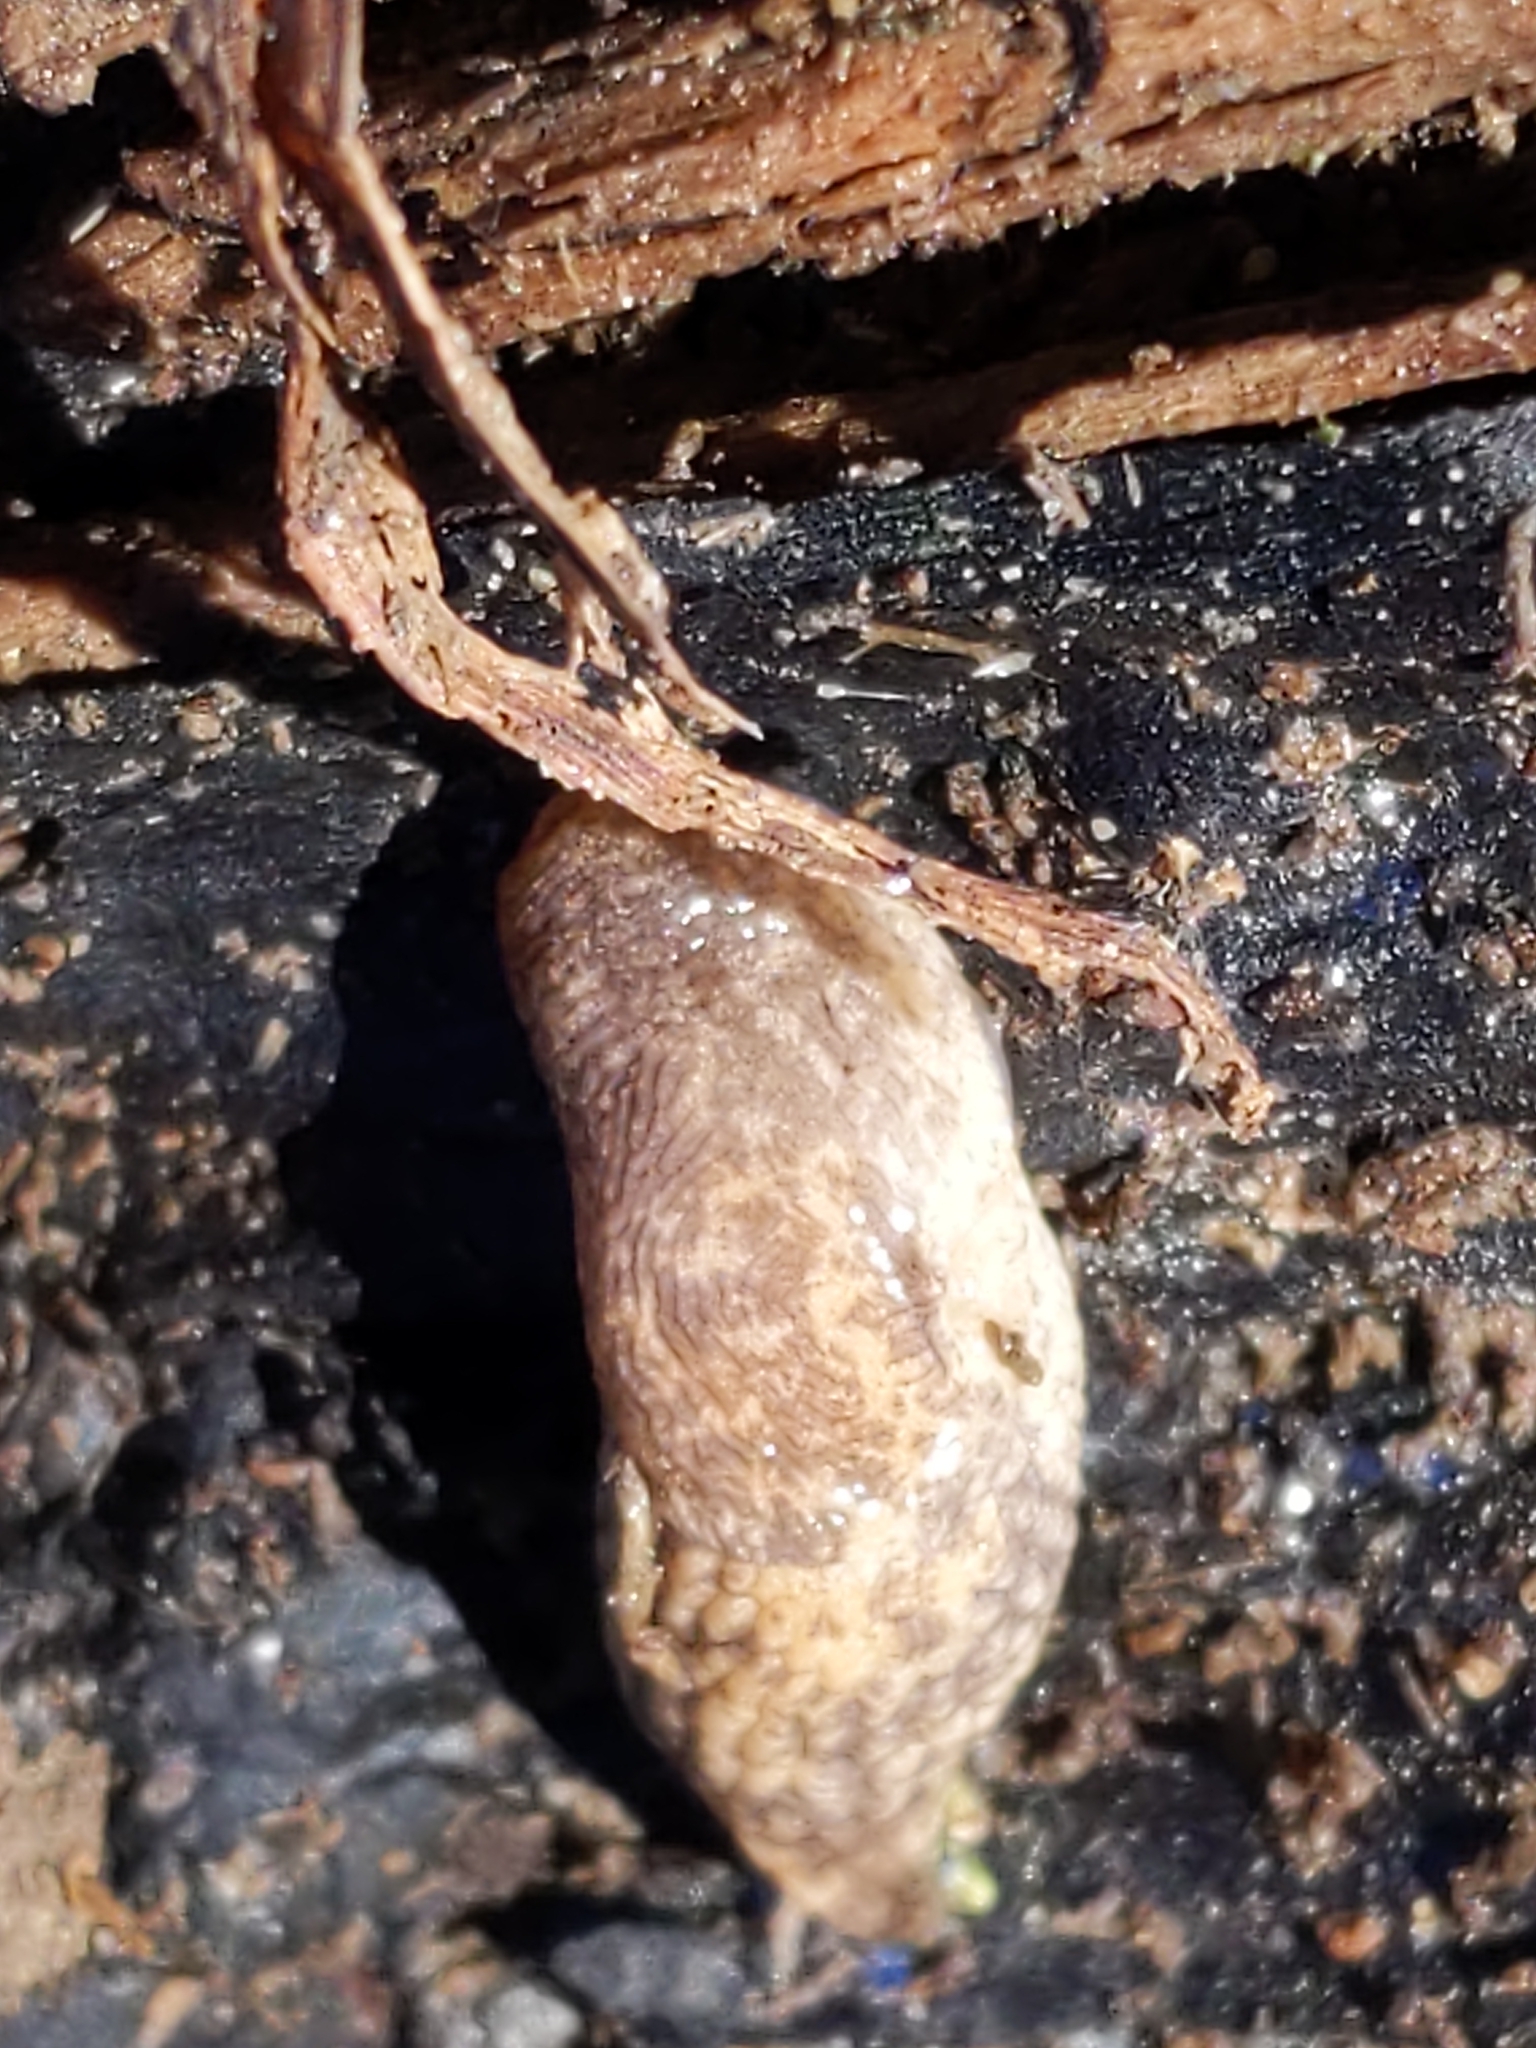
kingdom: Animalia
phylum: Mollusca
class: Gastropoda
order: Stylommatophora
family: Agriolimacidae
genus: Deroceras
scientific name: Deroceras reticulatum
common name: Gray field slug
